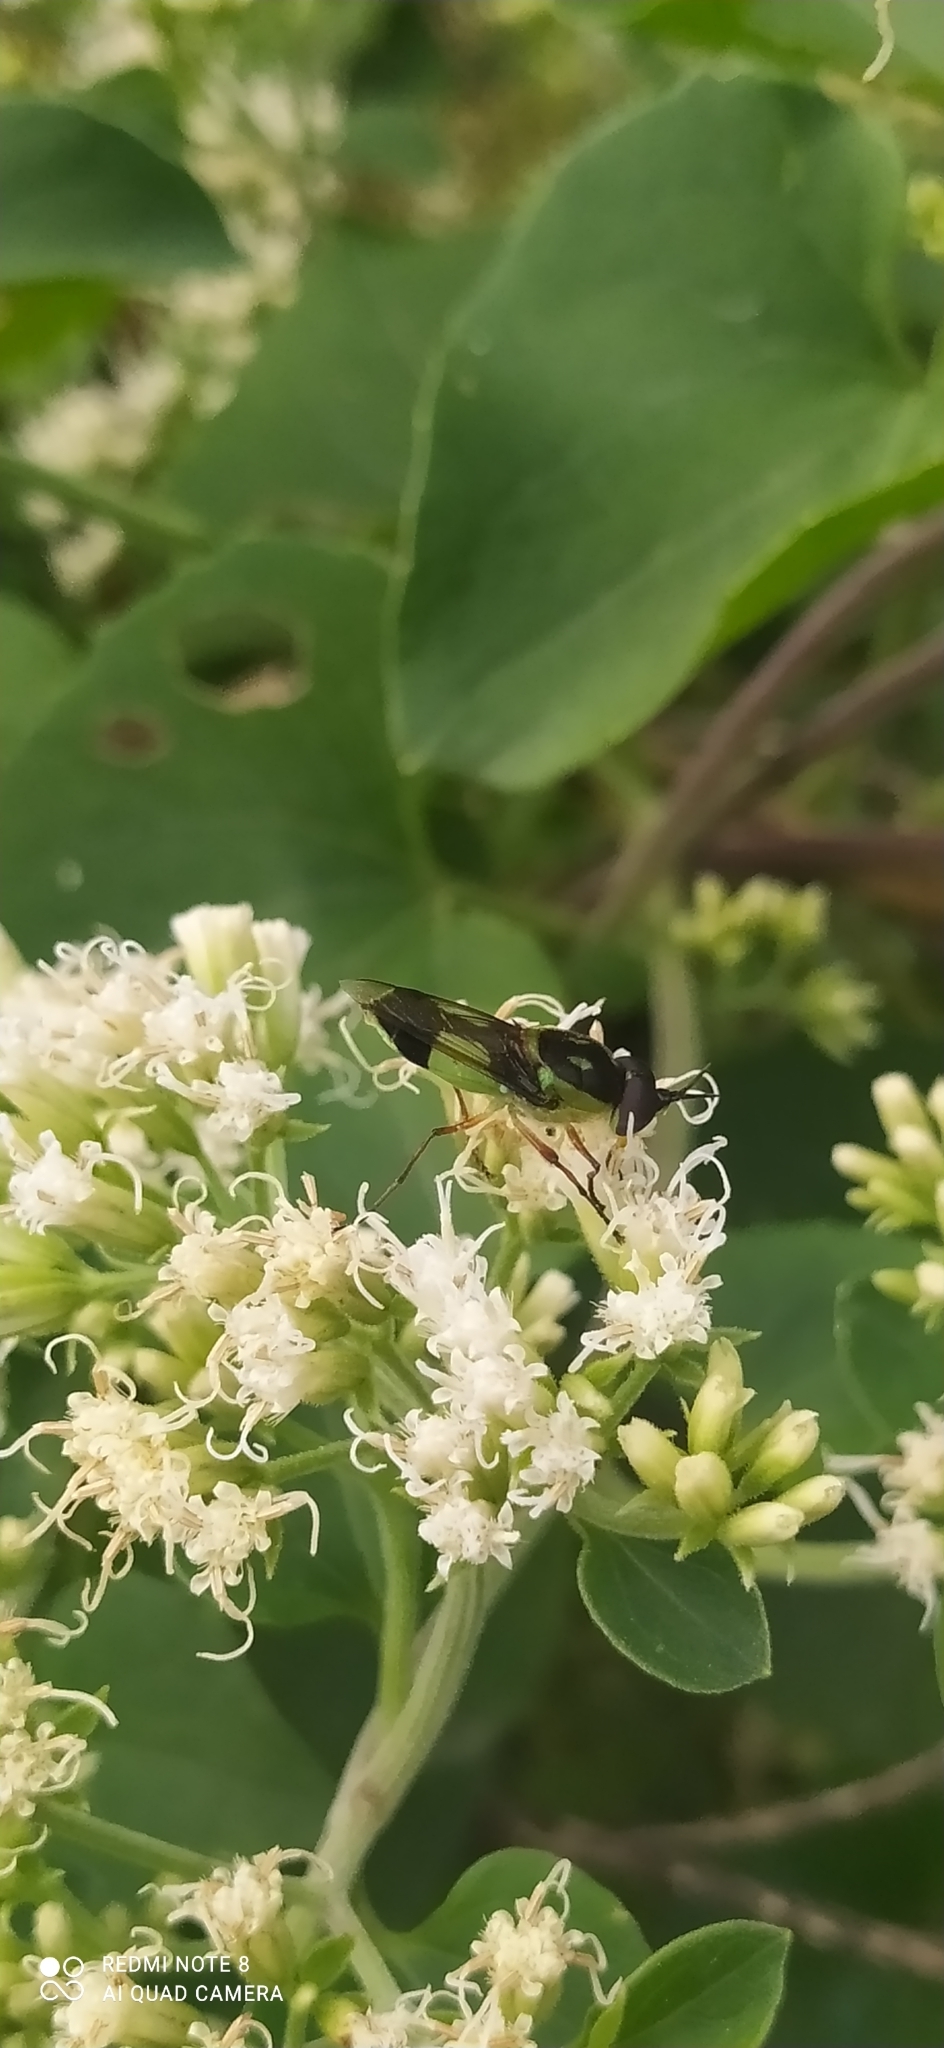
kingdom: Animalia
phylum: Arthropoda
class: Insecta
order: Diptera
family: Stratiomyidae
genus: Hedriodiscus
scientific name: Hedriodiscus pulcher
